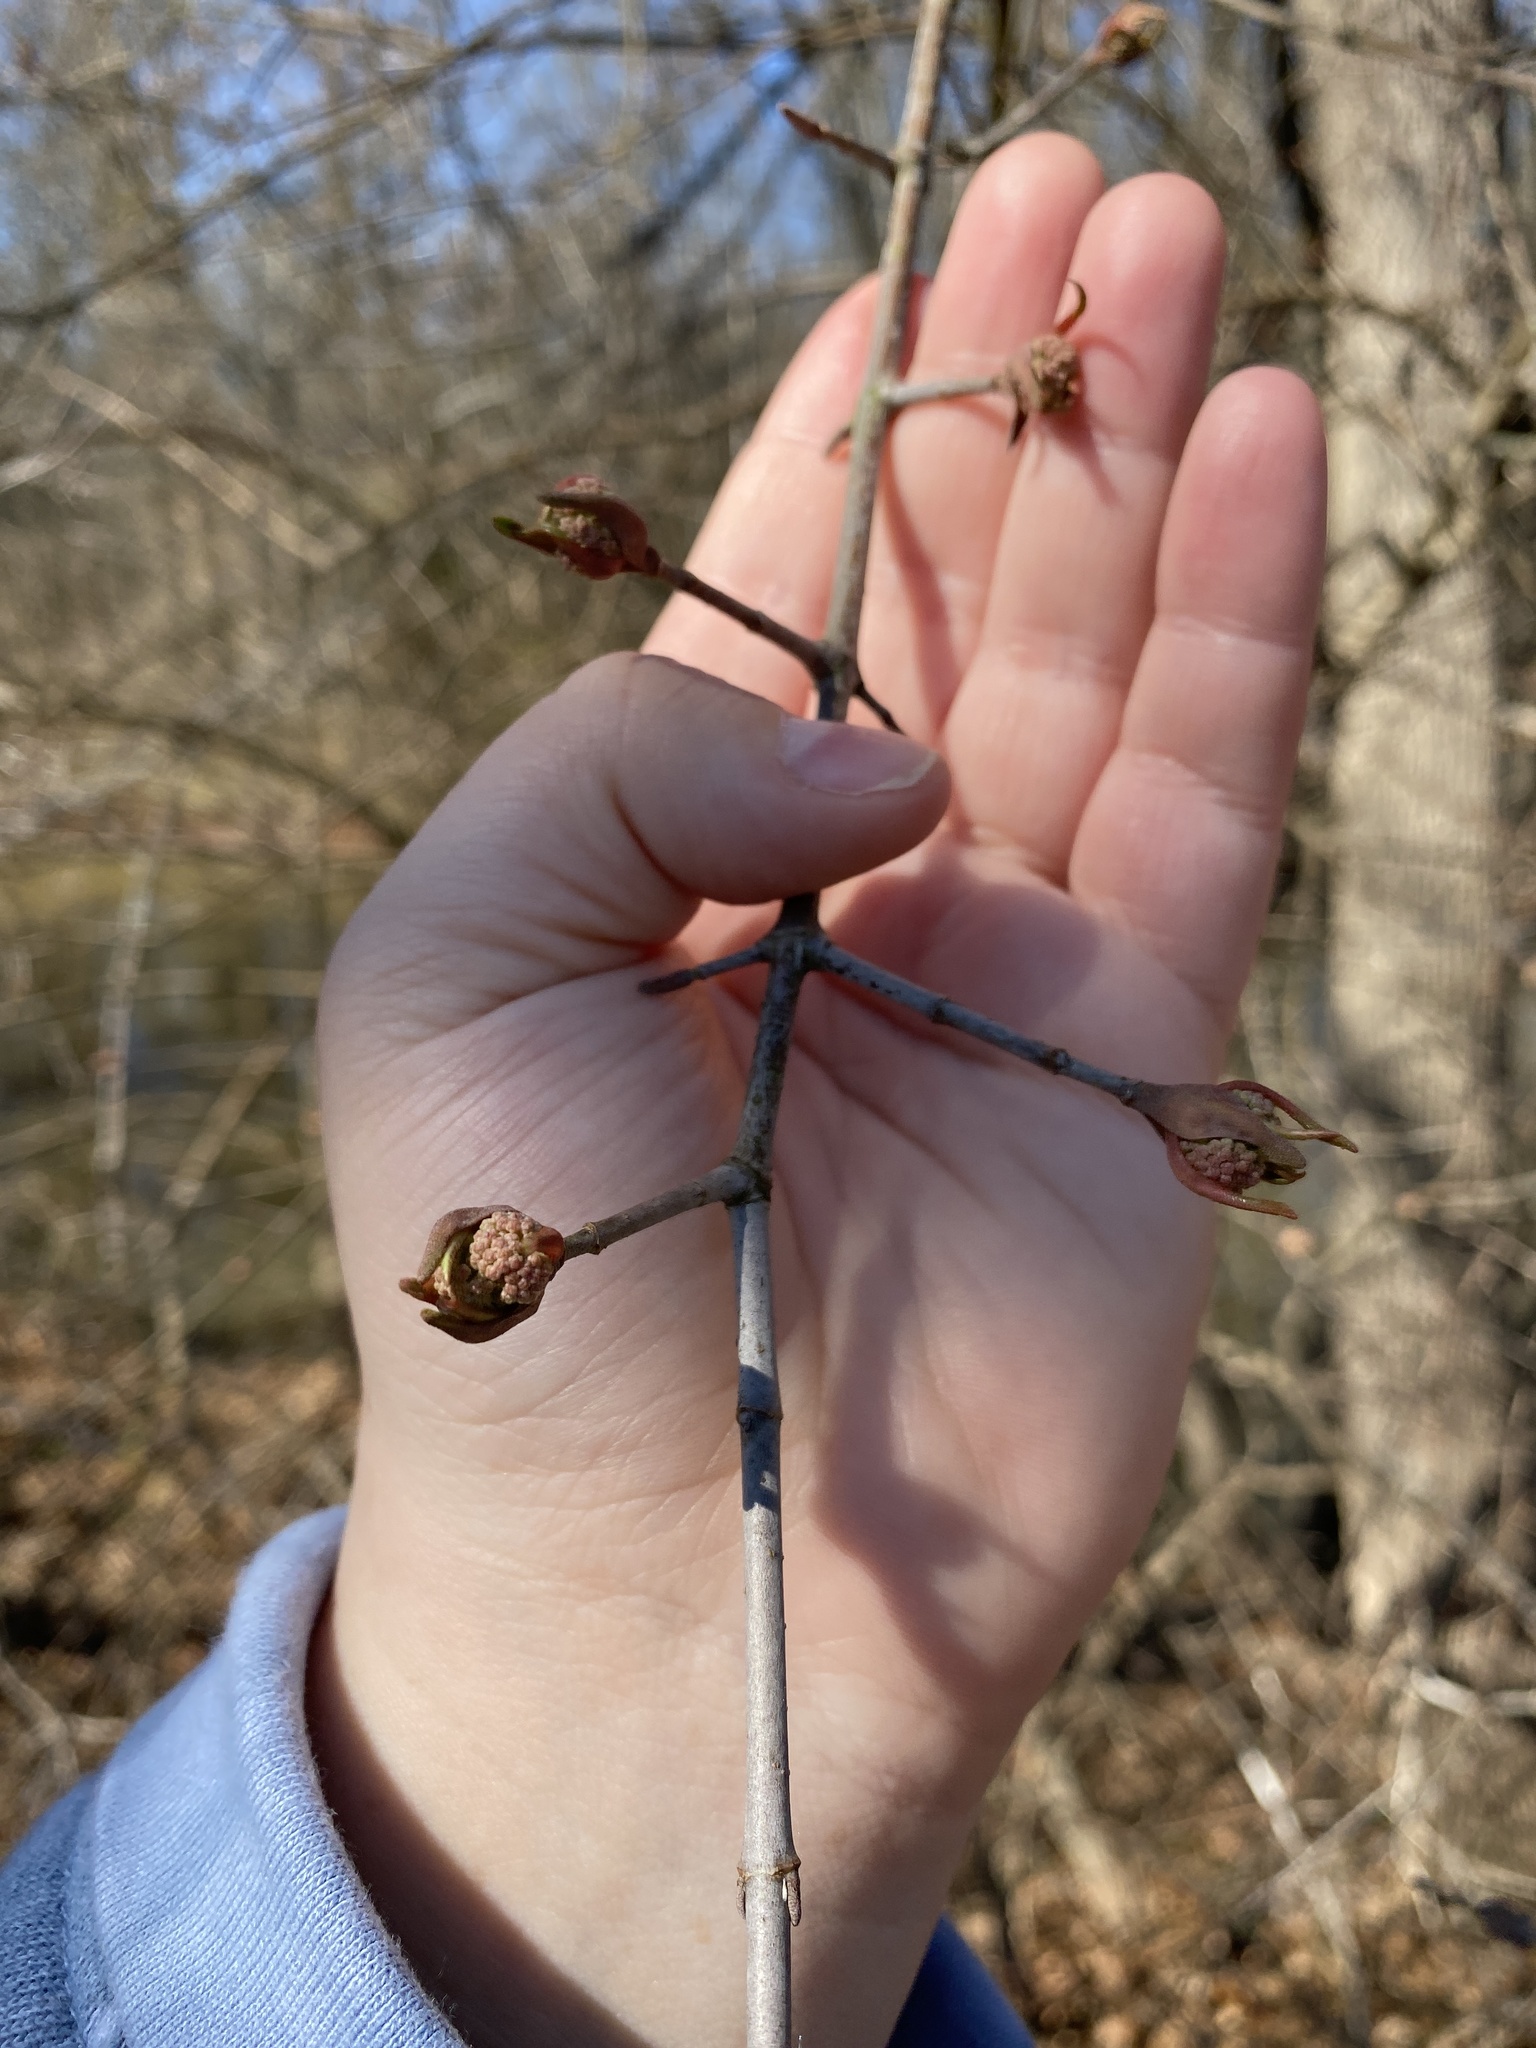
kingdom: Plantae
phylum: Tracheophyta
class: Magnoliopsida
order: Dipsacales
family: Viburnaceae
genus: Viburnum
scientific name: Viburnum prunifolium
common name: Black haw
